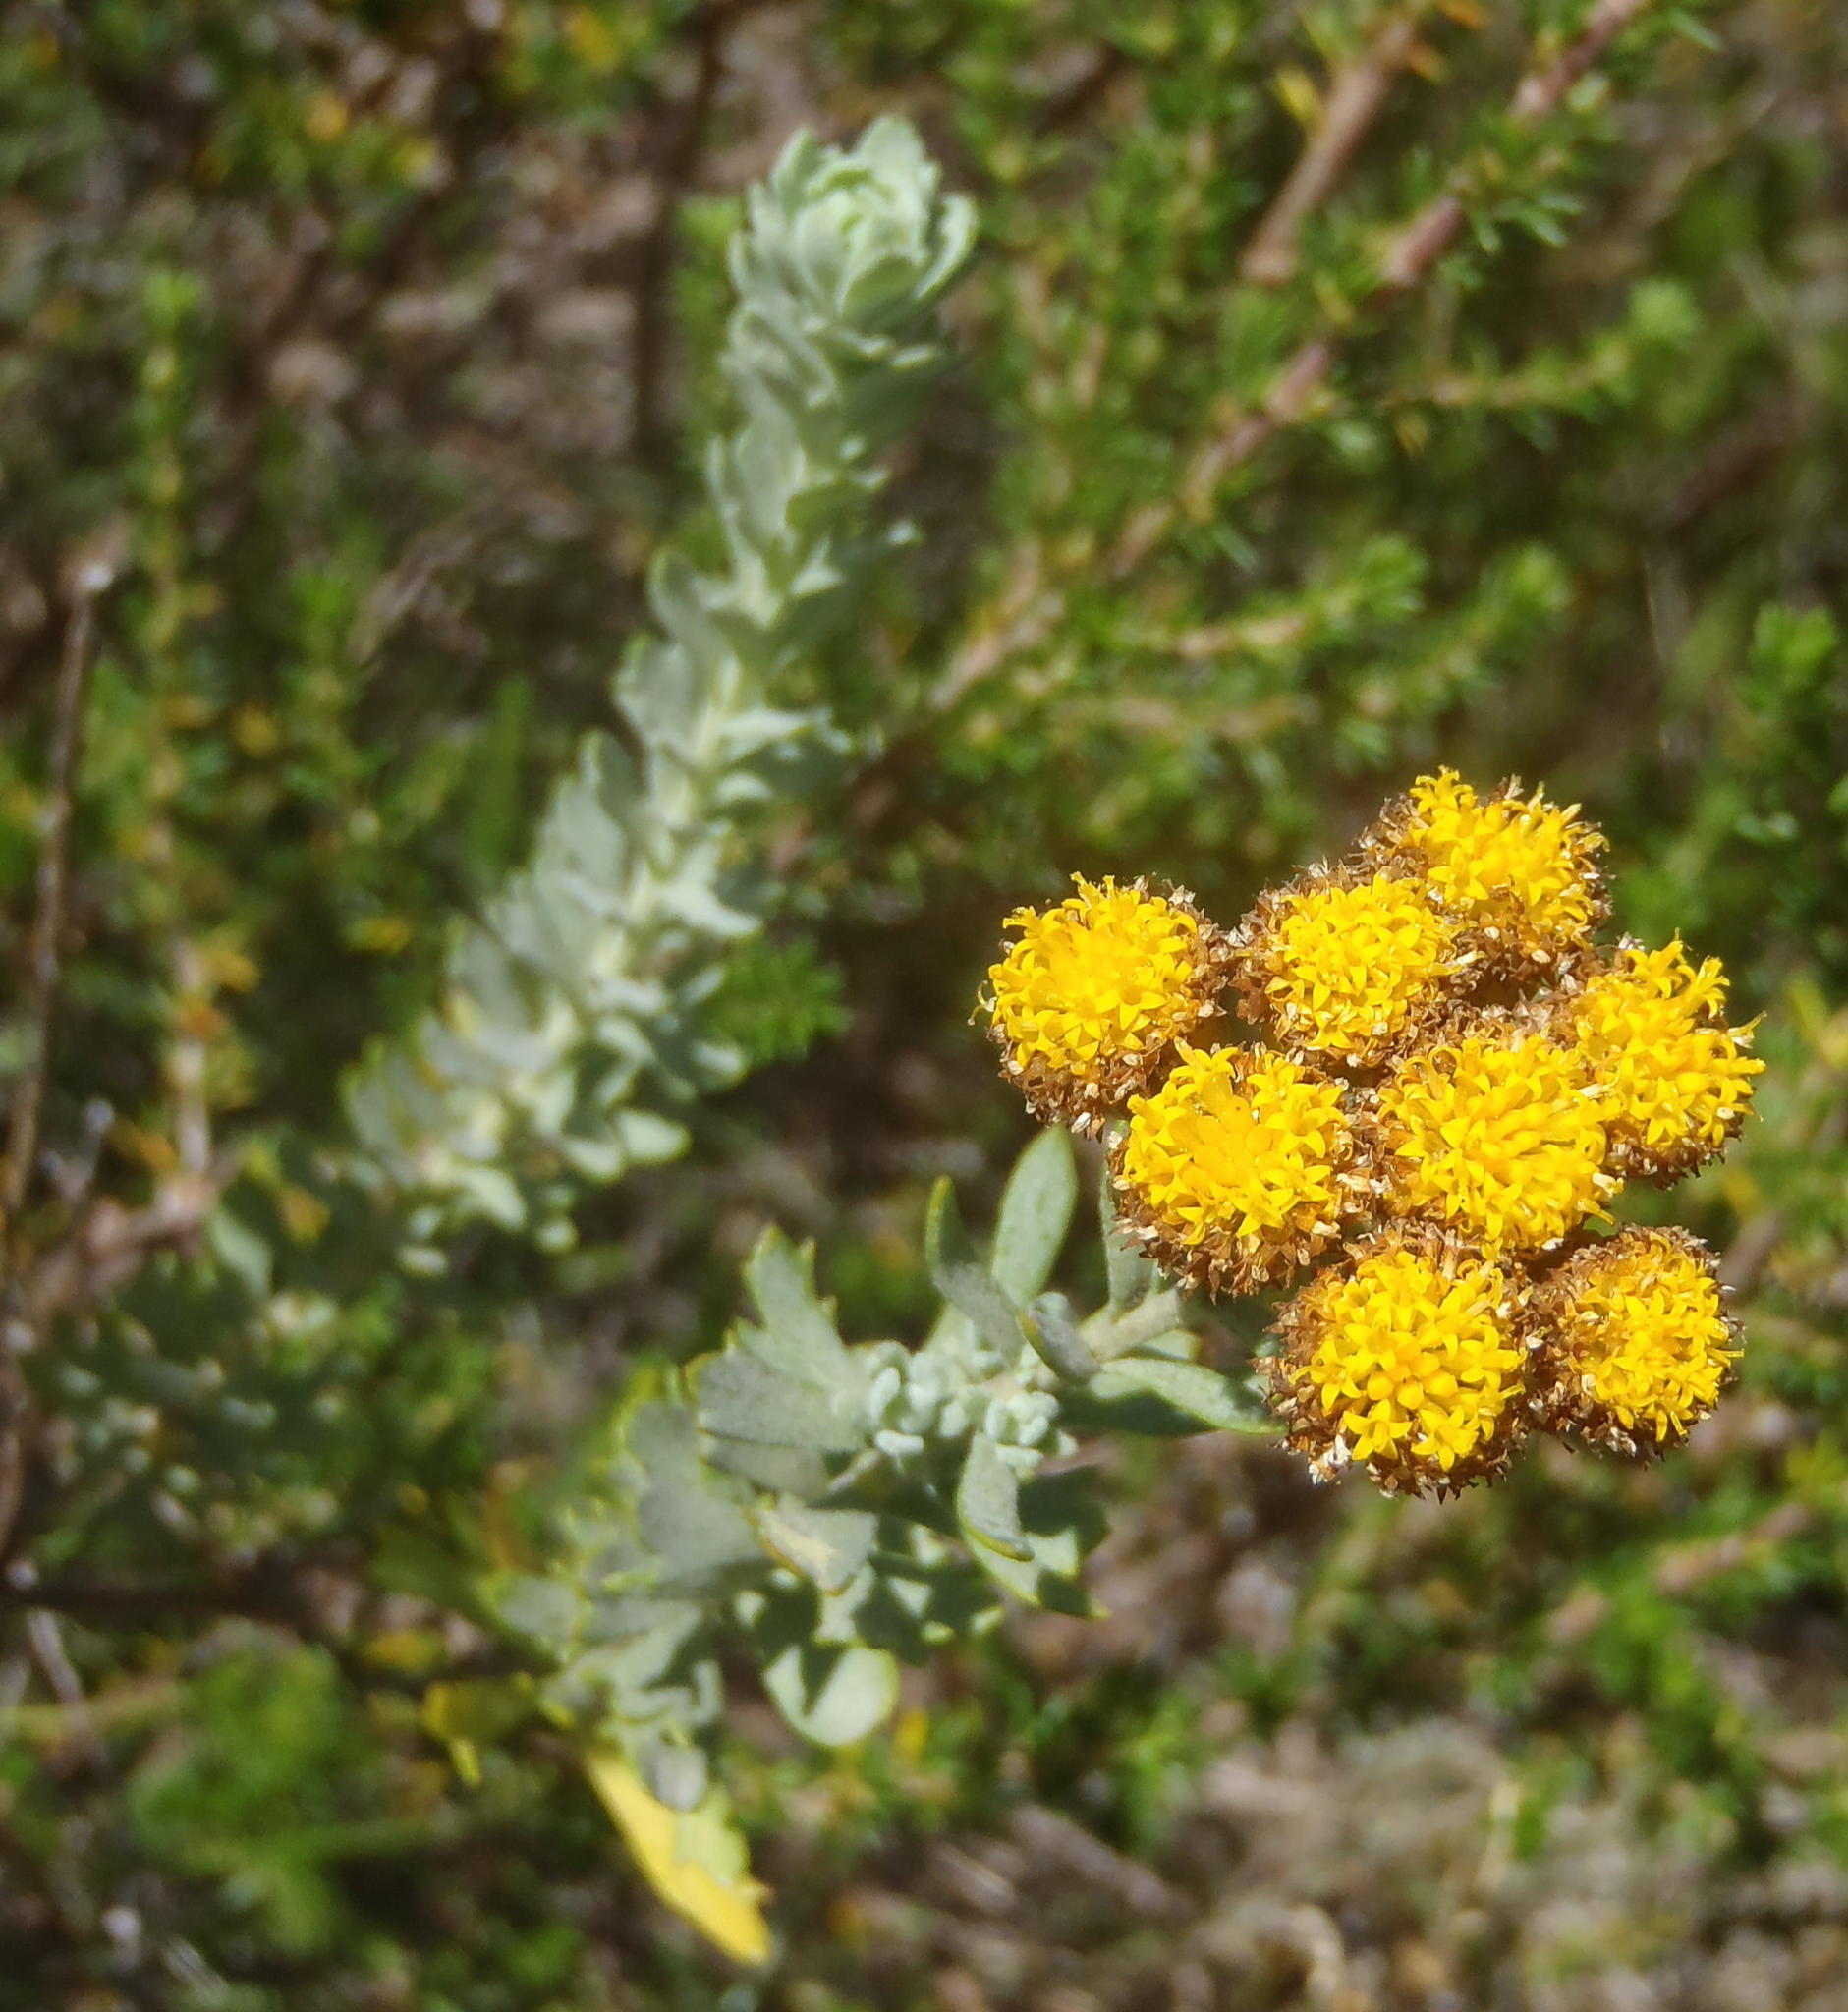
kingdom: Plantae
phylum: Tracheophyta
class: Magnoliopsida
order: Asterales
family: Asteraceae
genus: Athanasia
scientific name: Athanasia trifurcata
